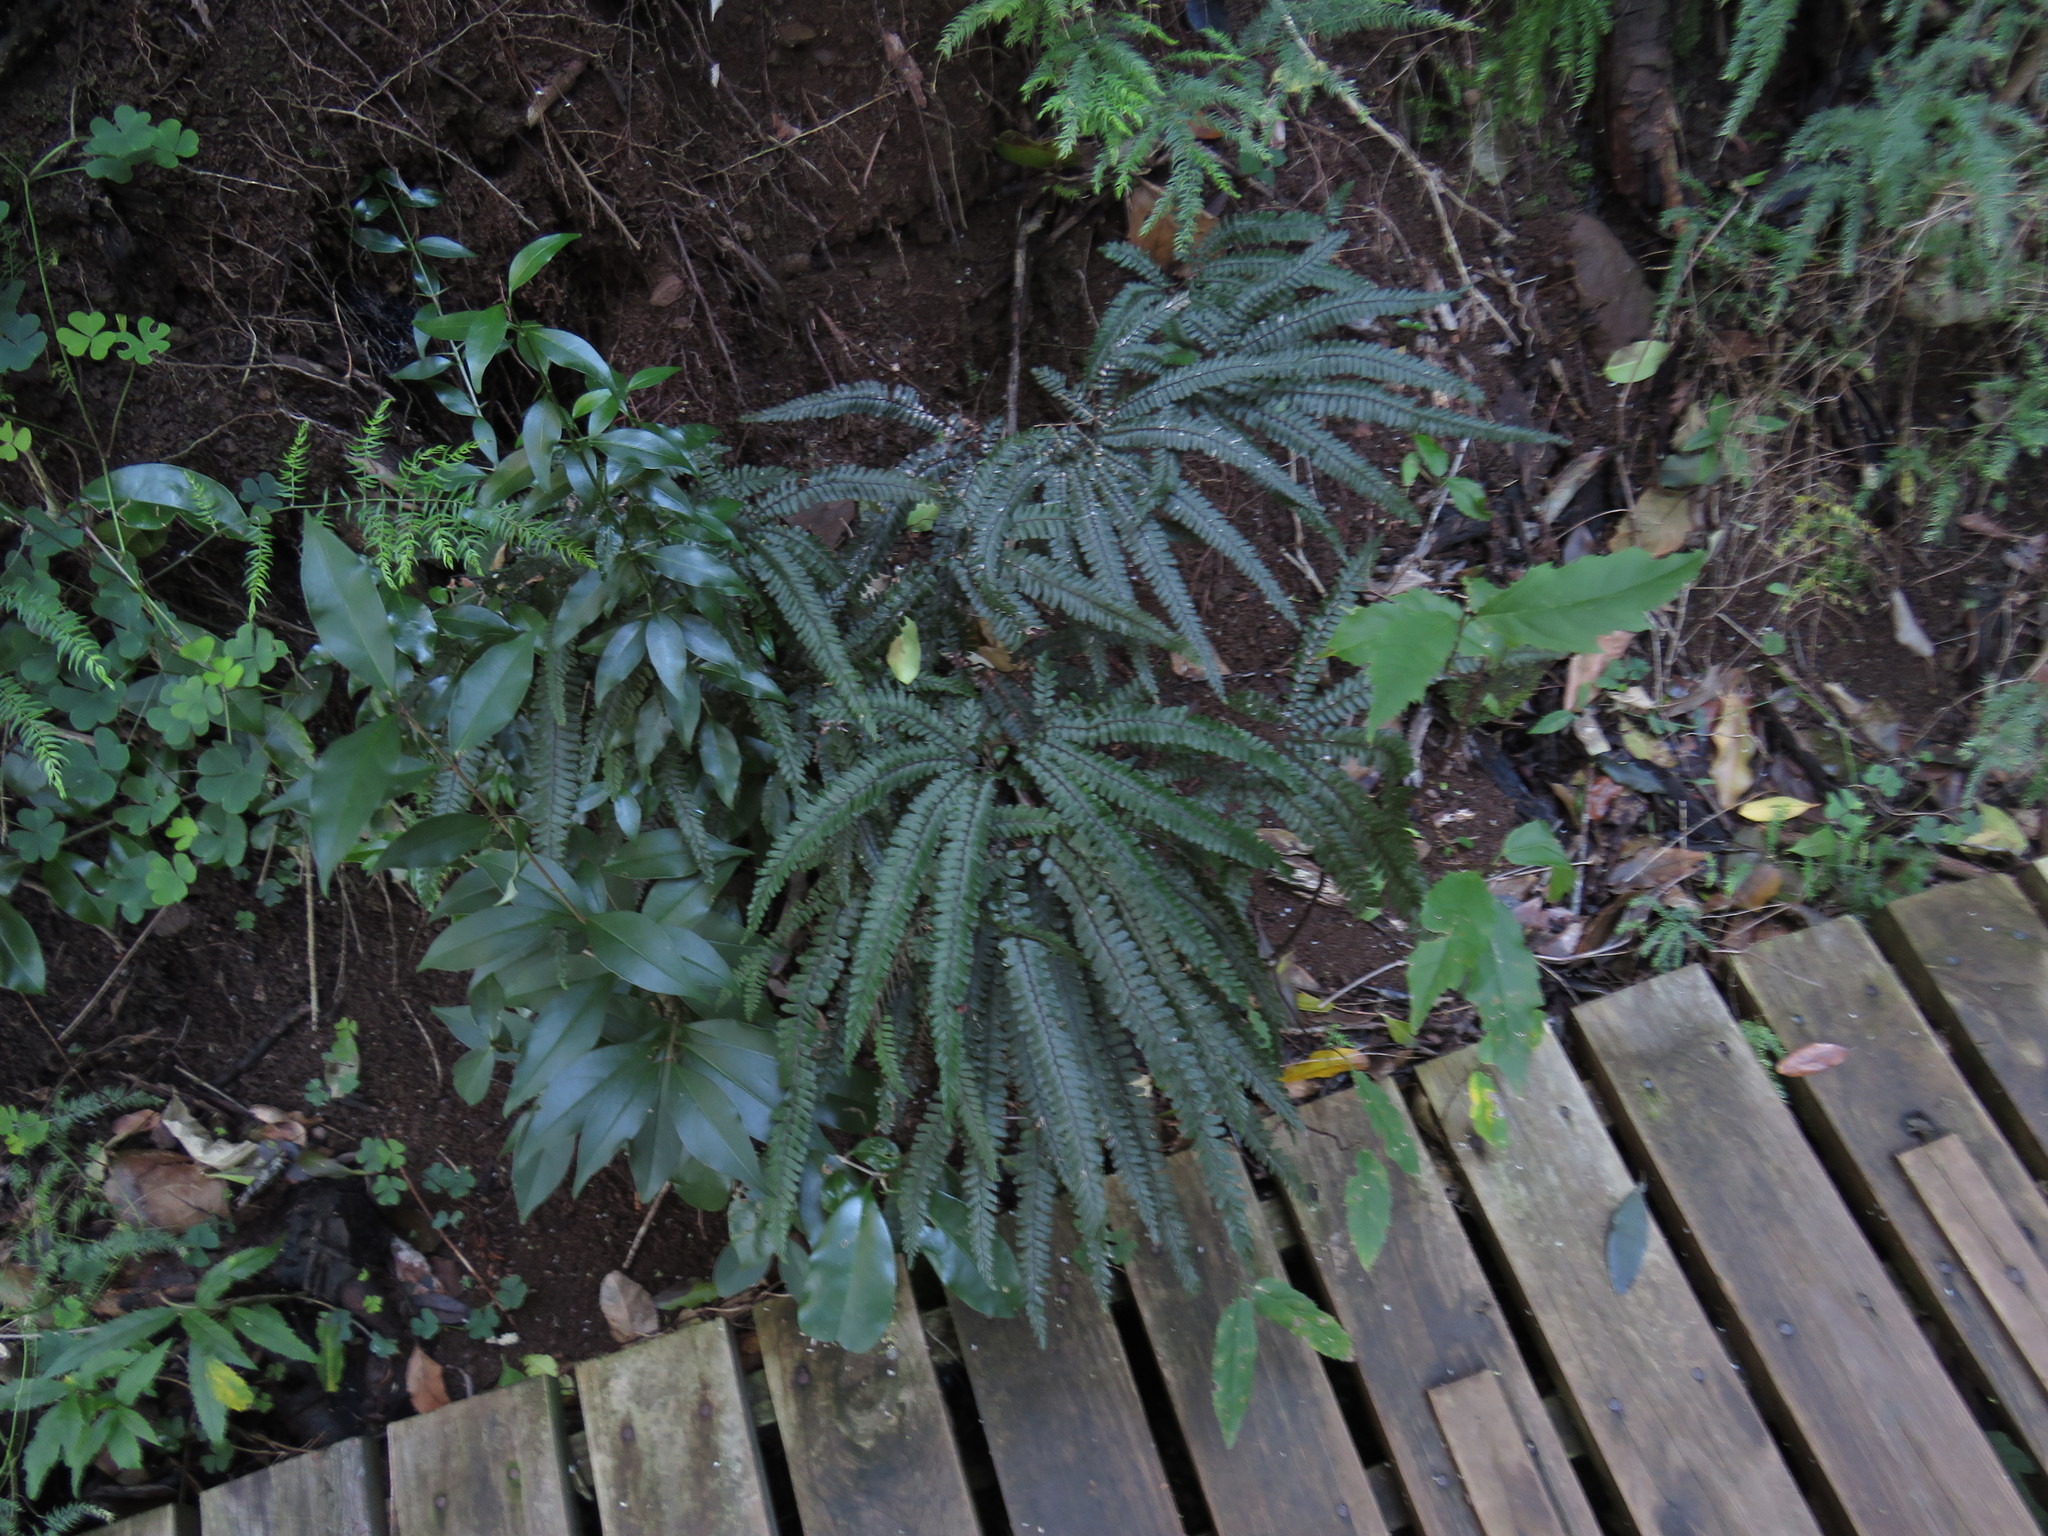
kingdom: Plantae
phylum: Tracheophyta
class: Polypodiopsida
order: Polypodiales
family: Pteridaceae
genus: Adiantum
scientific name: Adiantum hispidulum
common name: Rough maidenhair
